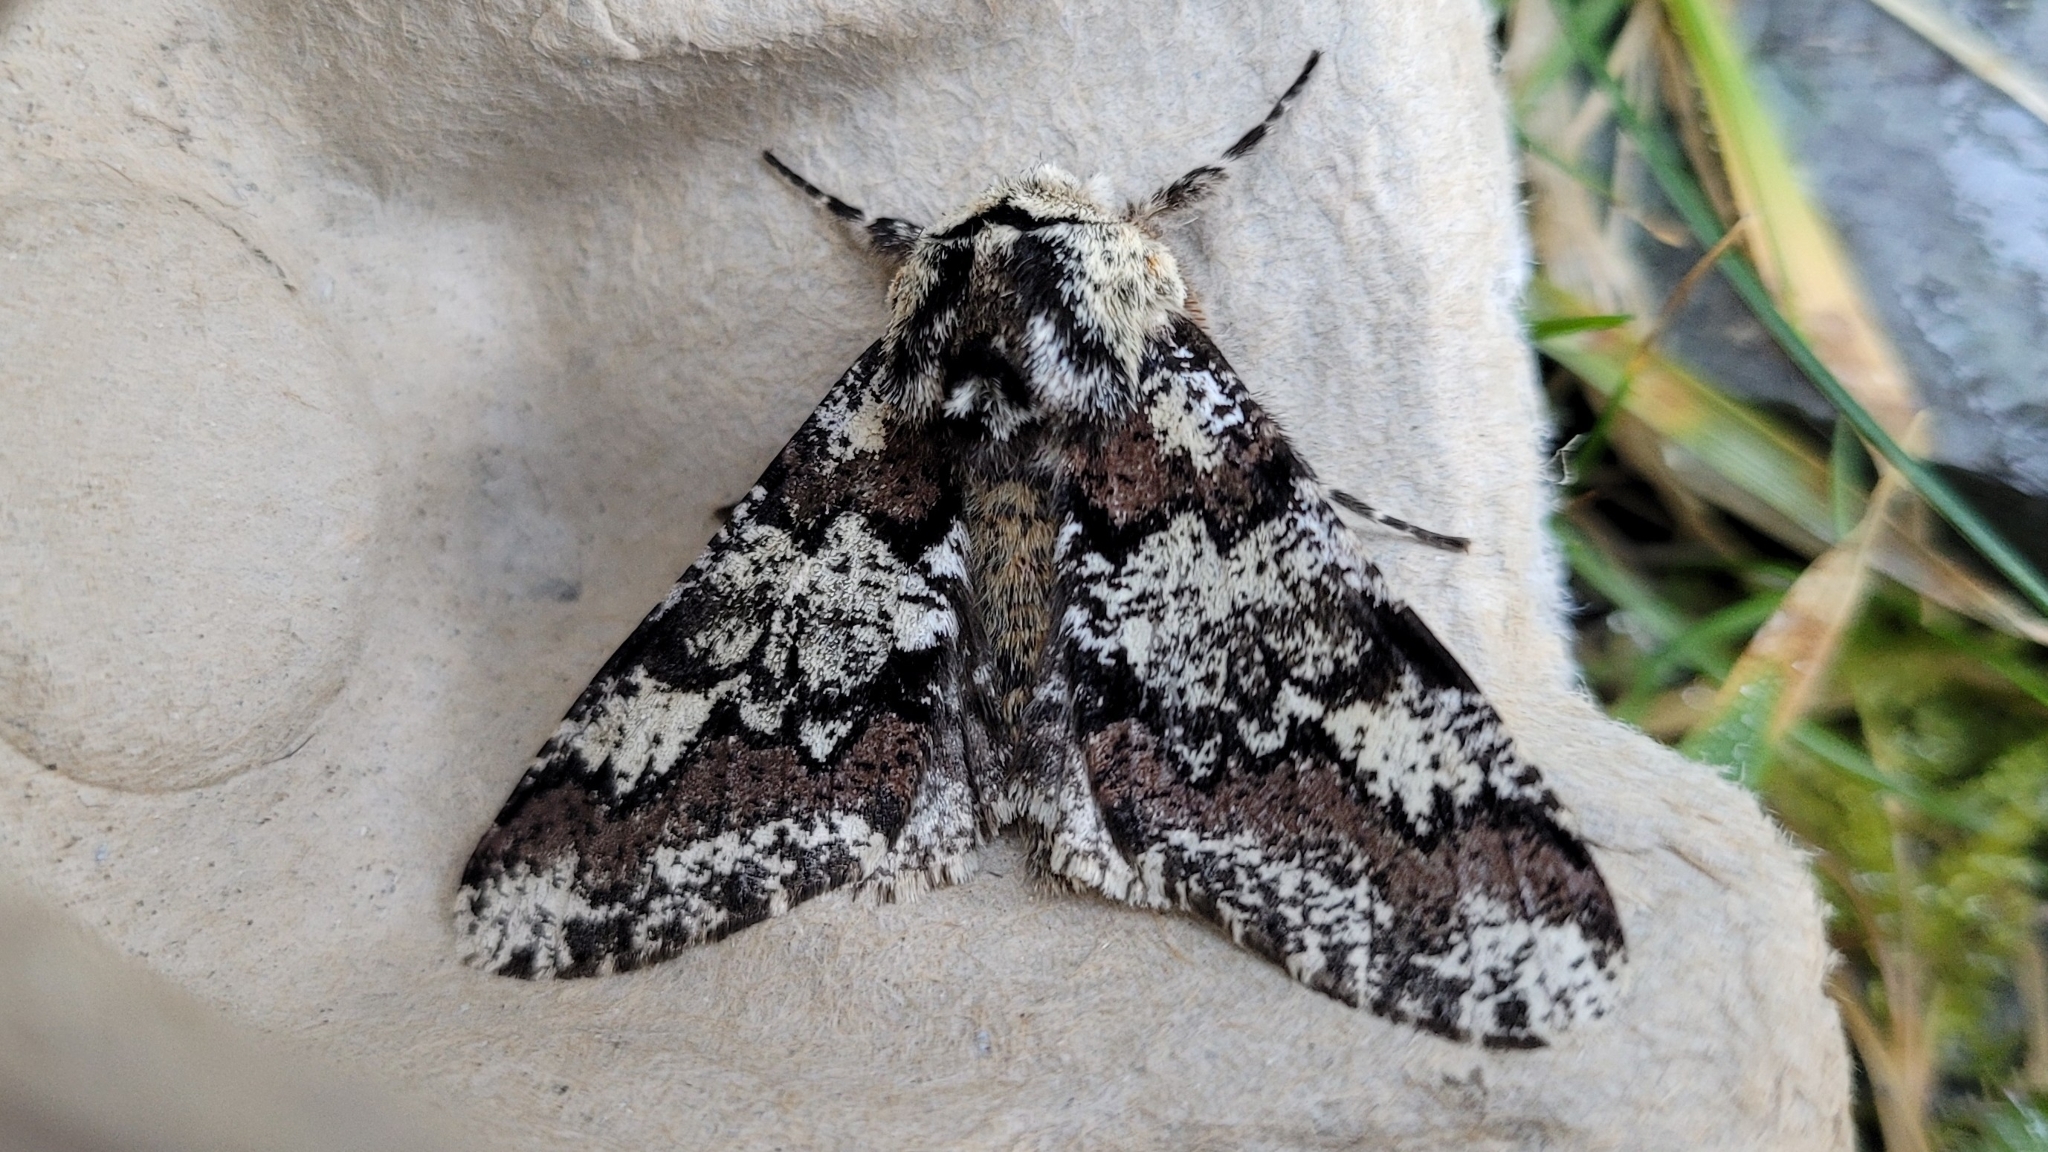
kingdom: Animalia
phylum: Arthropoda
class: Insecta
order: Lepidoptera
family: Geometridae
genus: Biston
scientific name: Biston strataria
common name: Oak beauty
